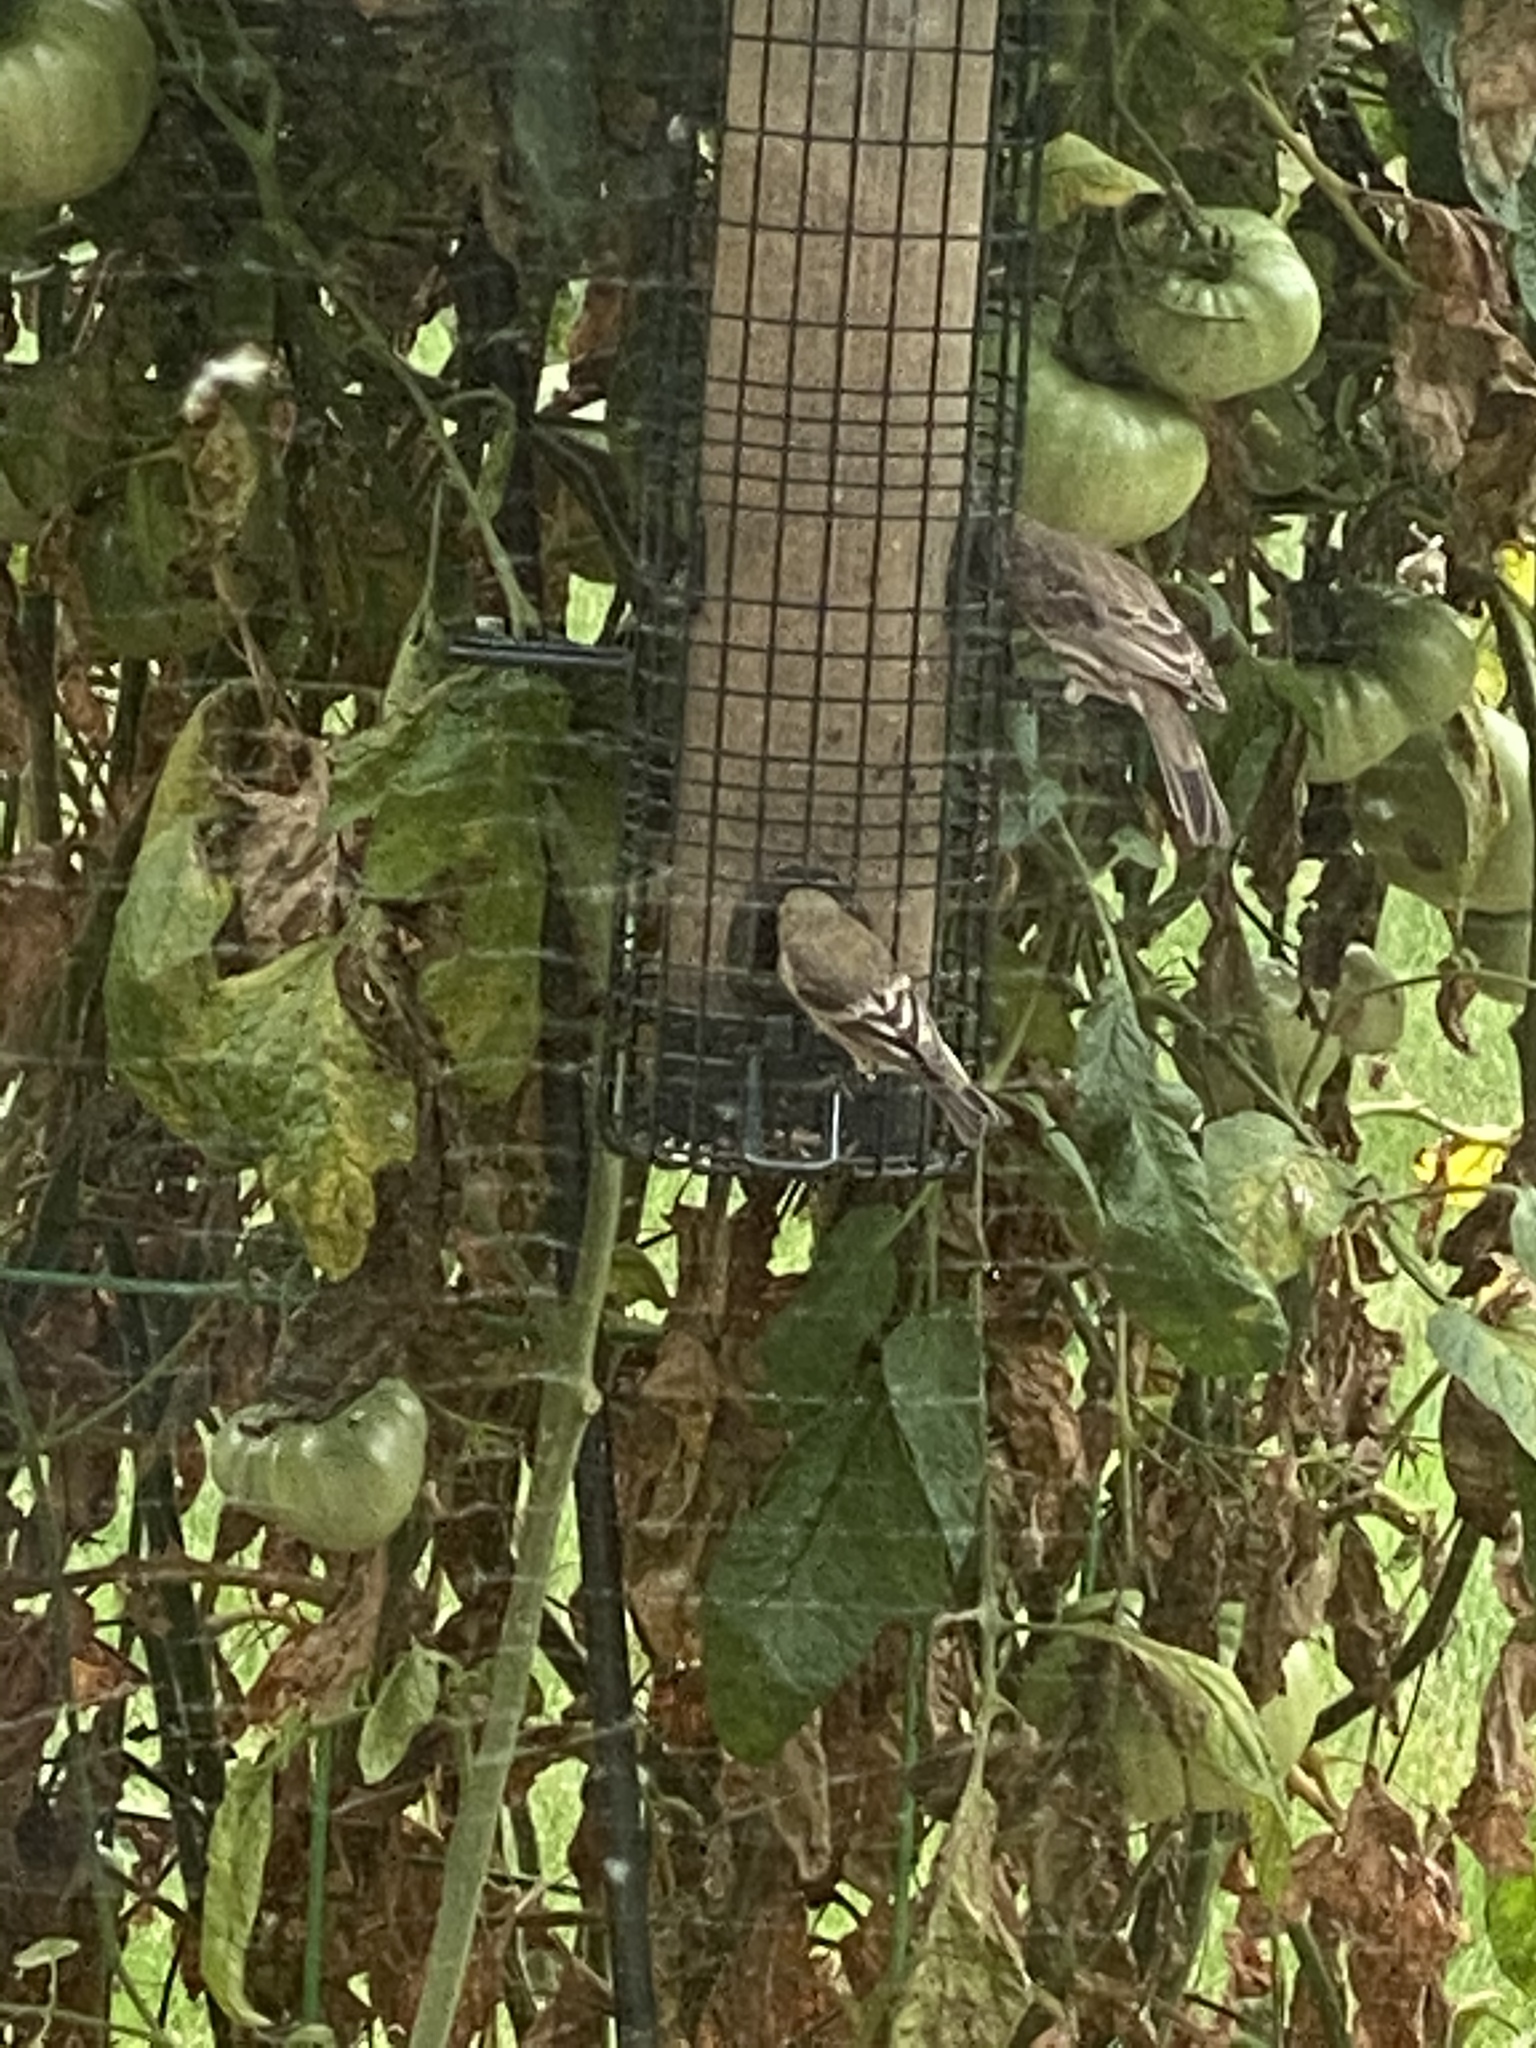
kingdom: Animalia
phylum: Chordata
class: Aves
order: Passeriformes
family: Fringillidae
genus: Spinus
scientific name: Spinus psaltria
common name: Lesser goldfinch
